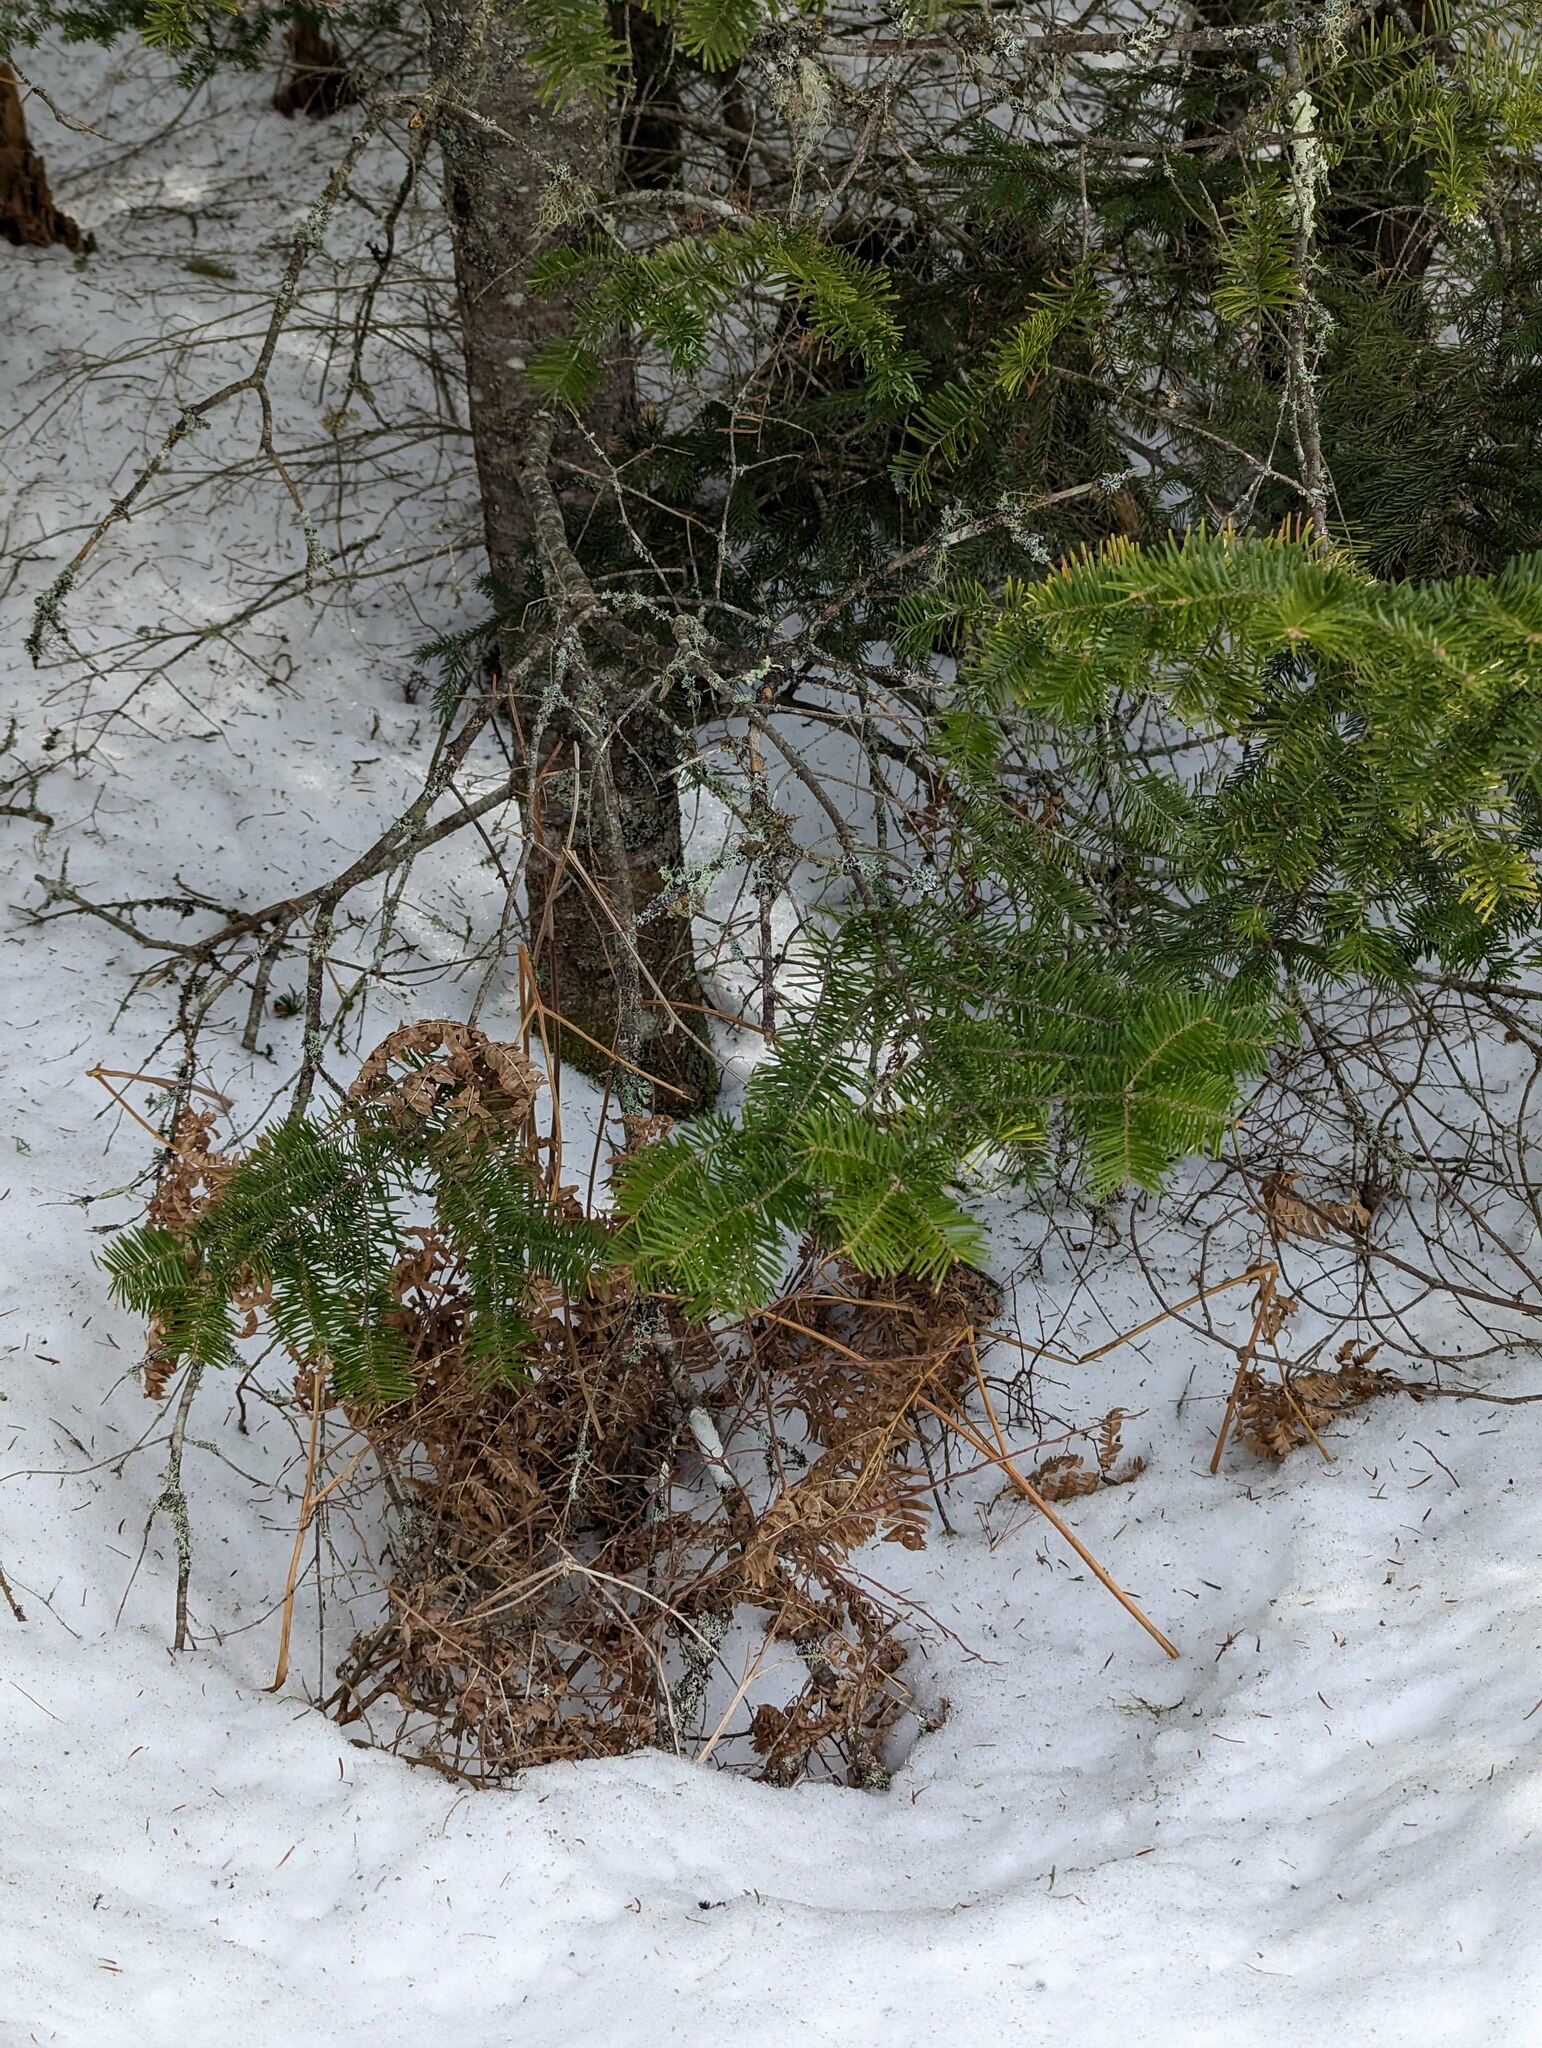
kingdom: Plantae
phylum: Tracheophyta
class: Pinopsida
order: Pinales
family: Pinaceae
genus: Abies
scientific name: Abies balsamea
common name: Balsam fir
